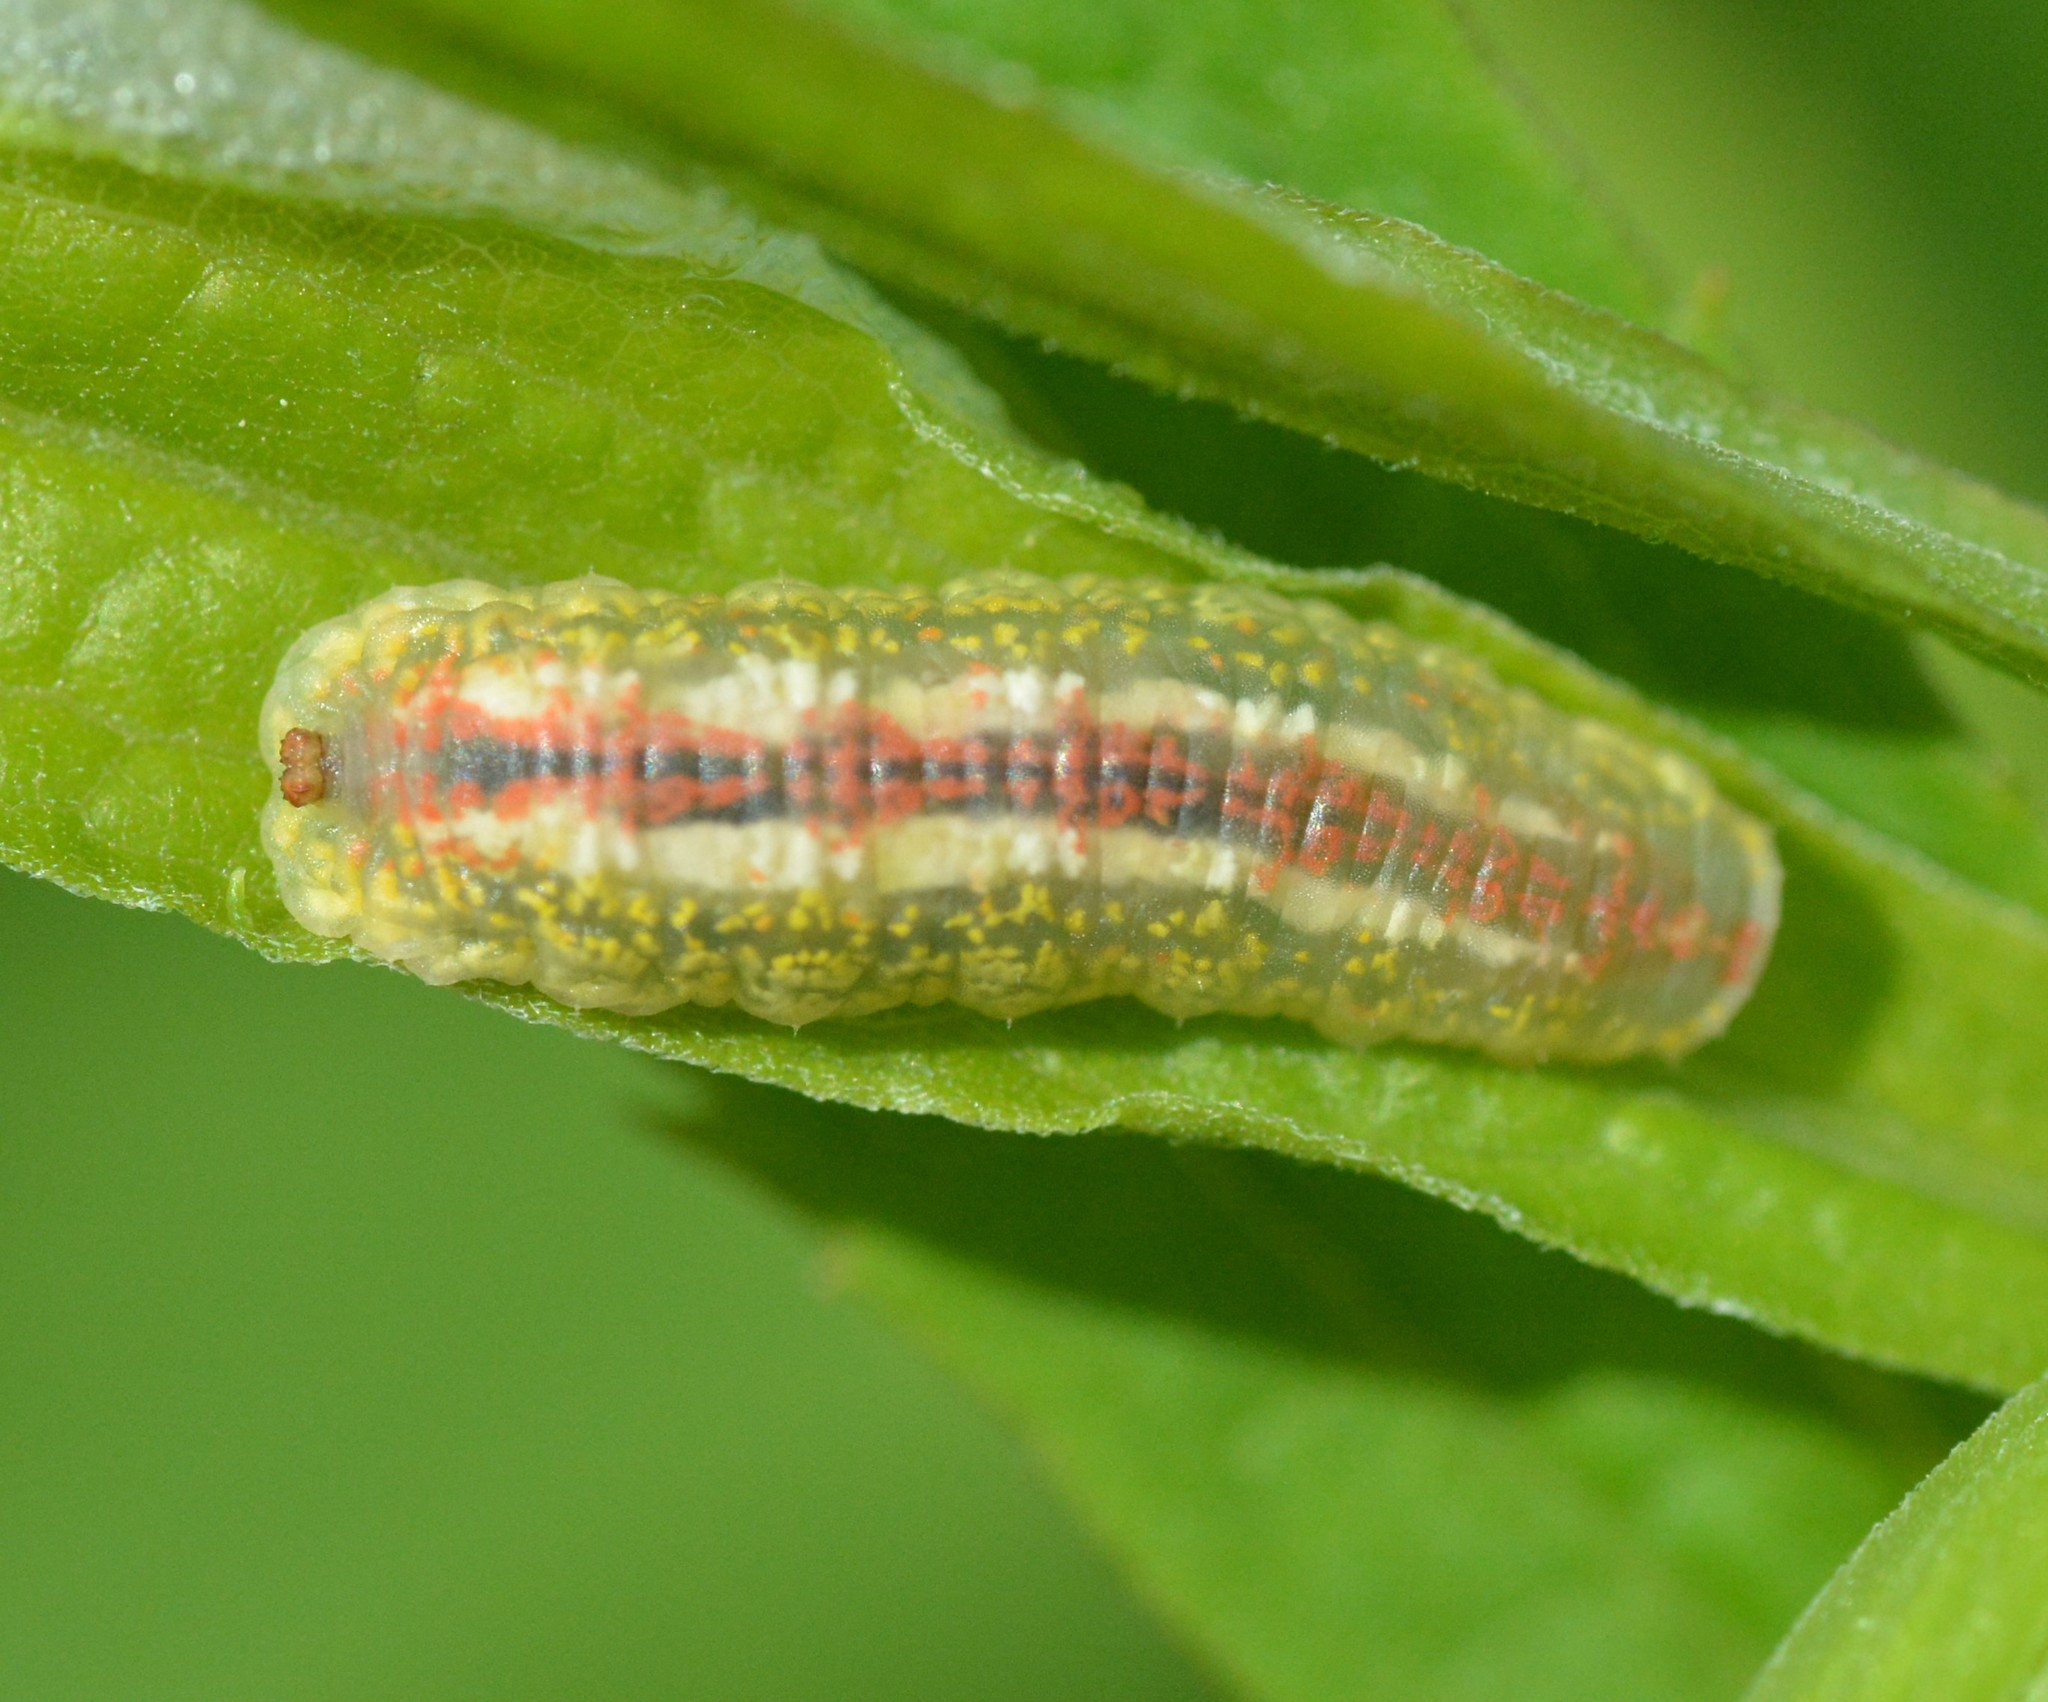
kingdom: Animalia
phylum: Arthropoda
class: Insecta
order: Diptera
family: Syrphidae
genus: Syrphus
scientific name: Syrphus
